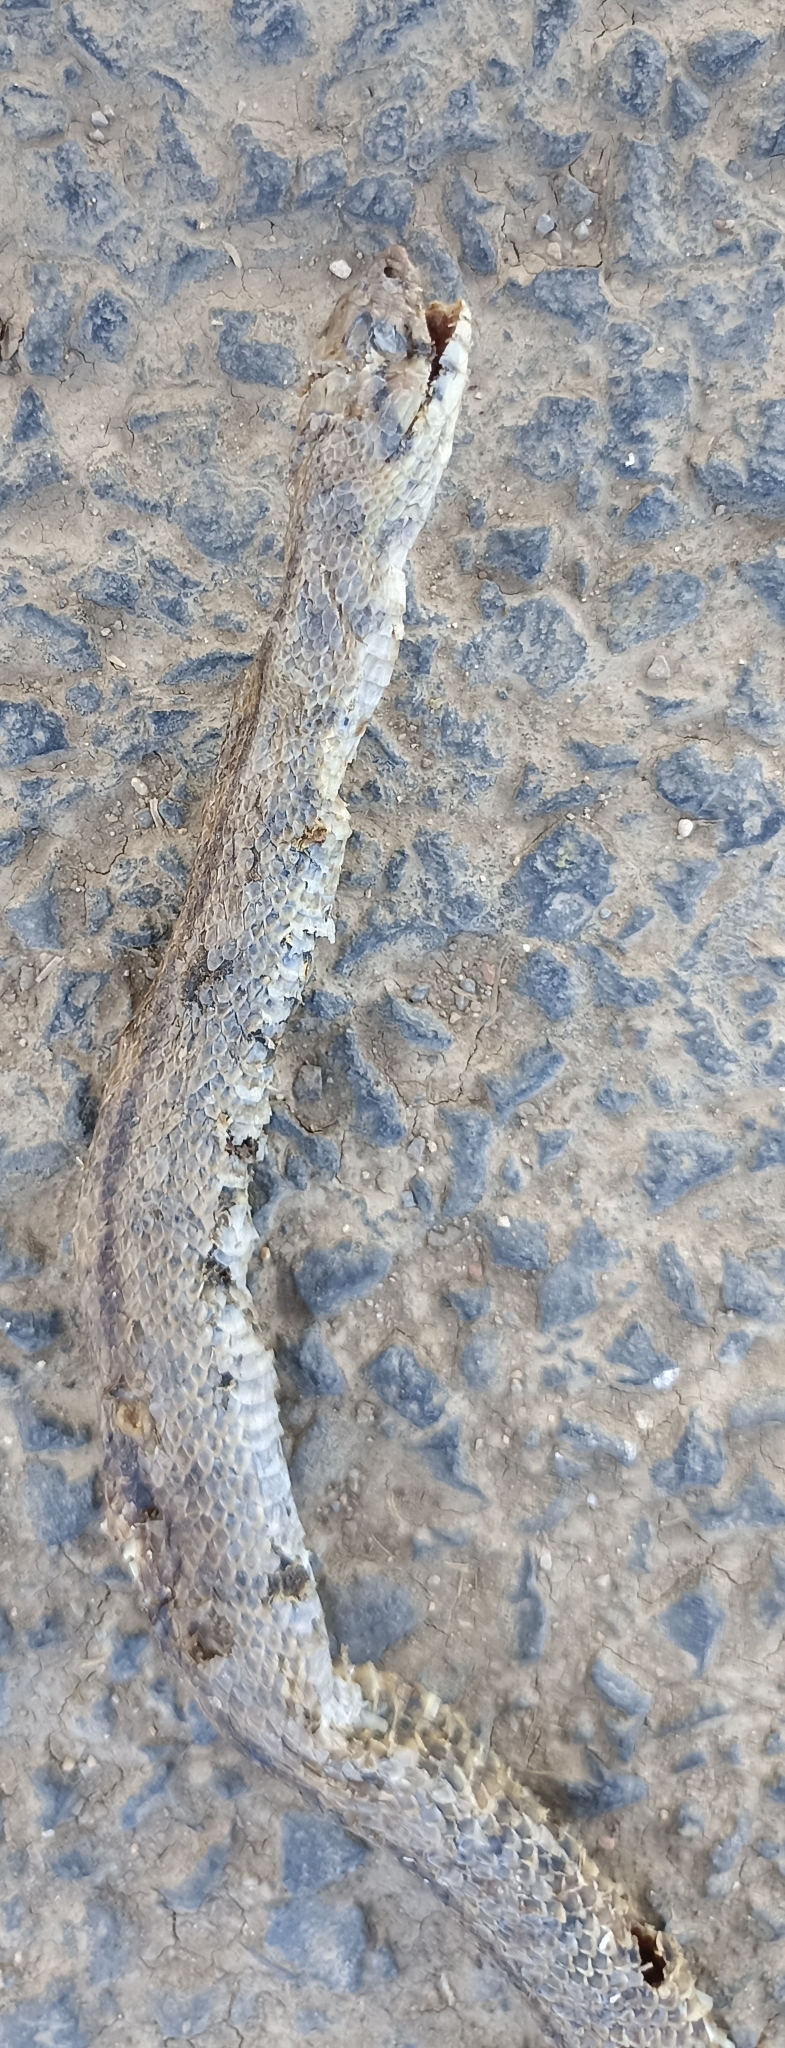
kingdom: Animalia
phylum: Chordata
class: Squamata
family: Colubridae
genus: Zamenis
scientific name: Zamenis scalaris
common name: Ladder snakes
